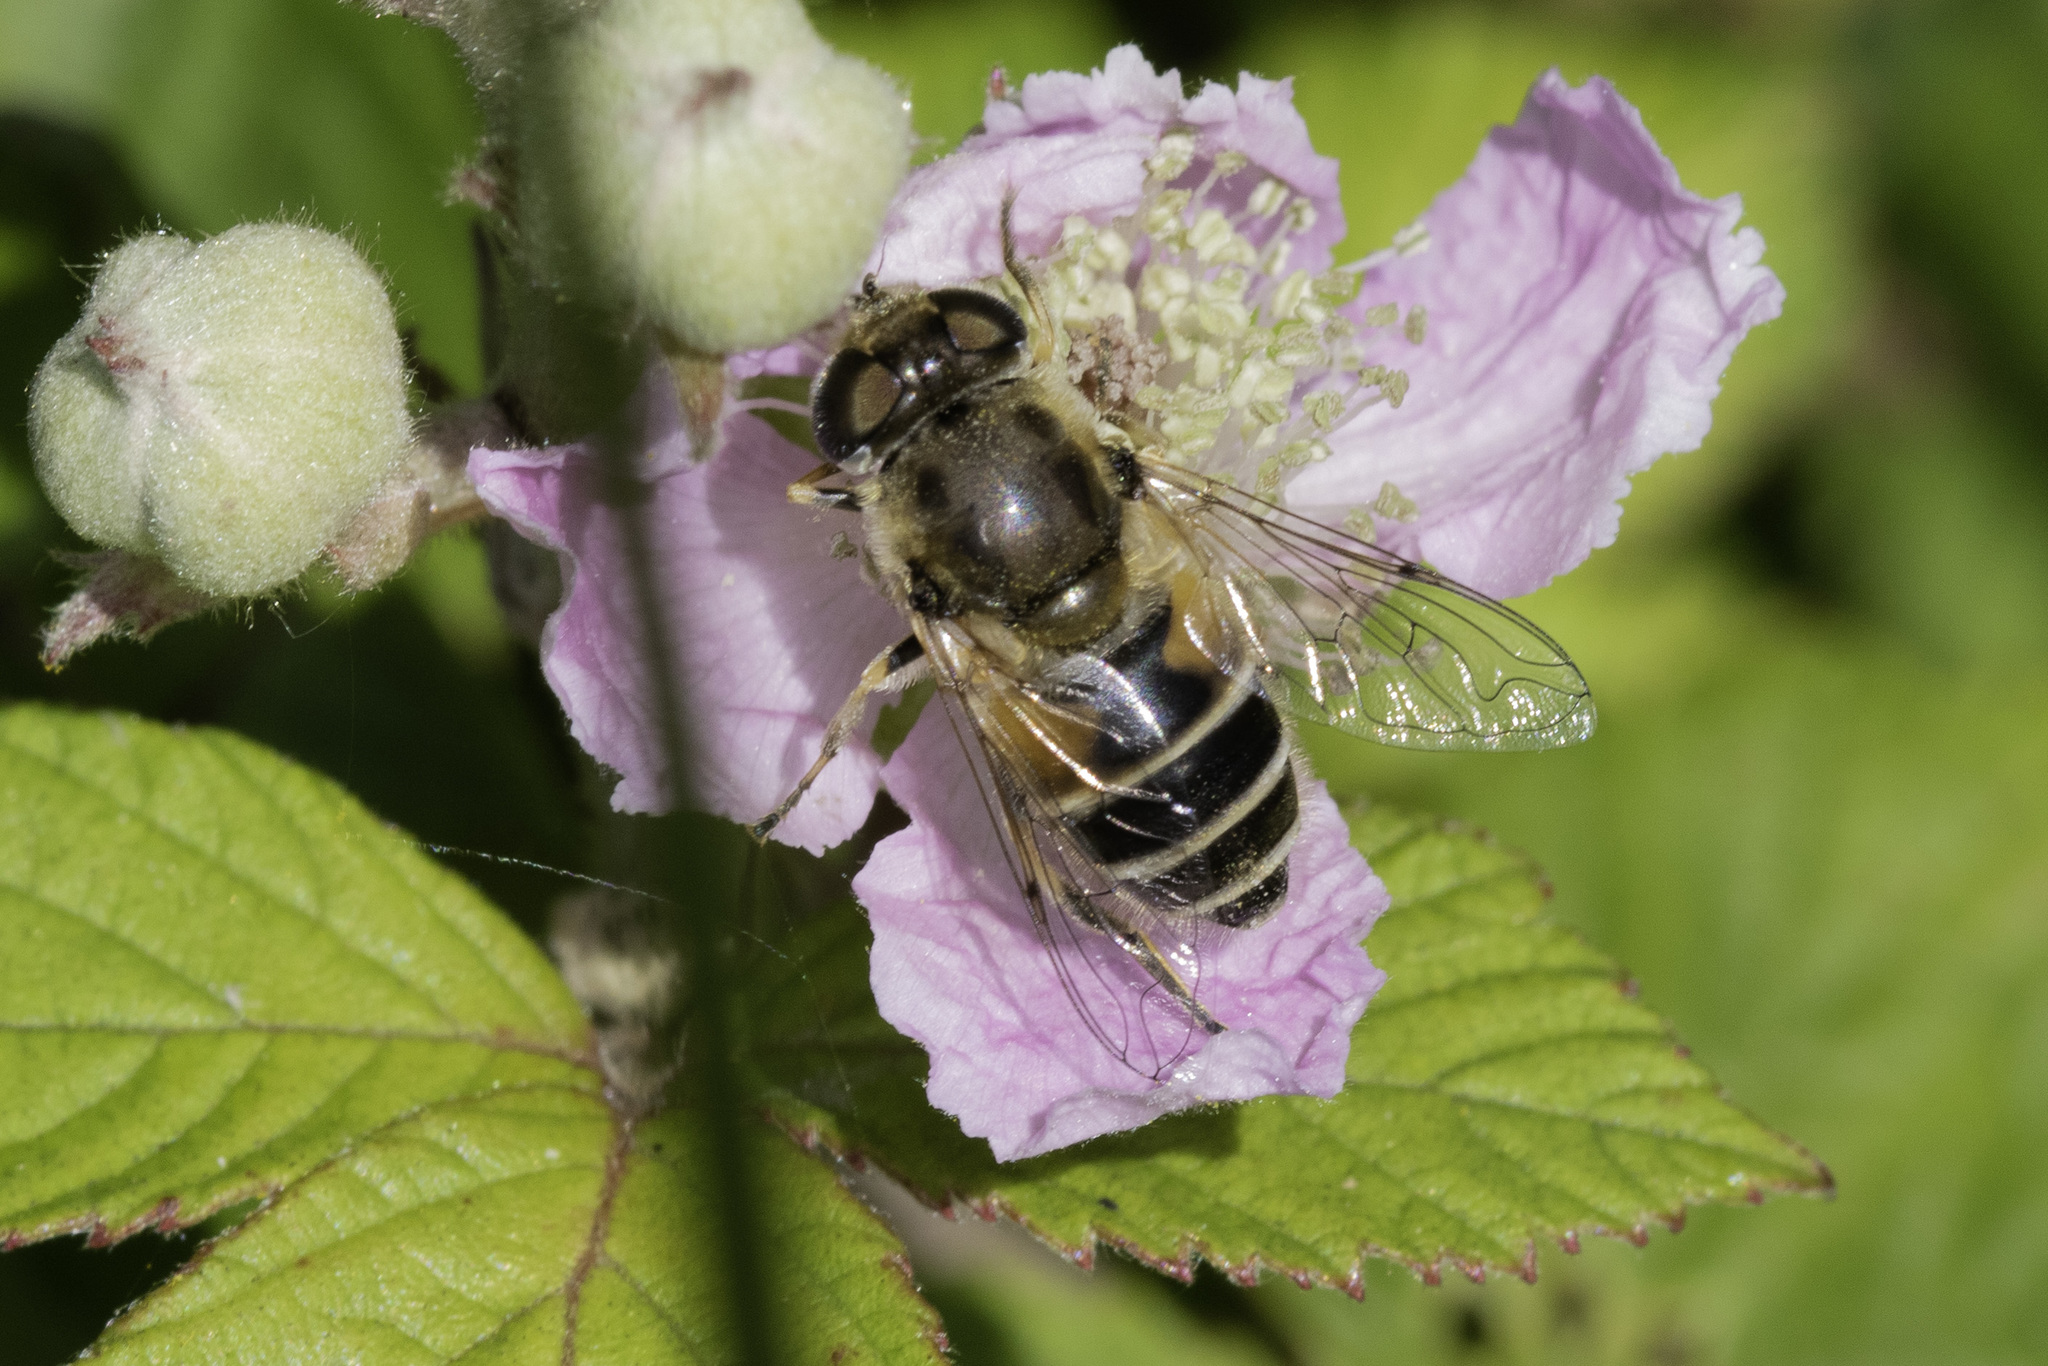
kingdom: Animalia
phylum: Arthropoda
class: Insecta
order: Diptera
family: Syrphidae
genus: Eristalis
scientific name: Eristalis arbustorum
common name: Hover fly
